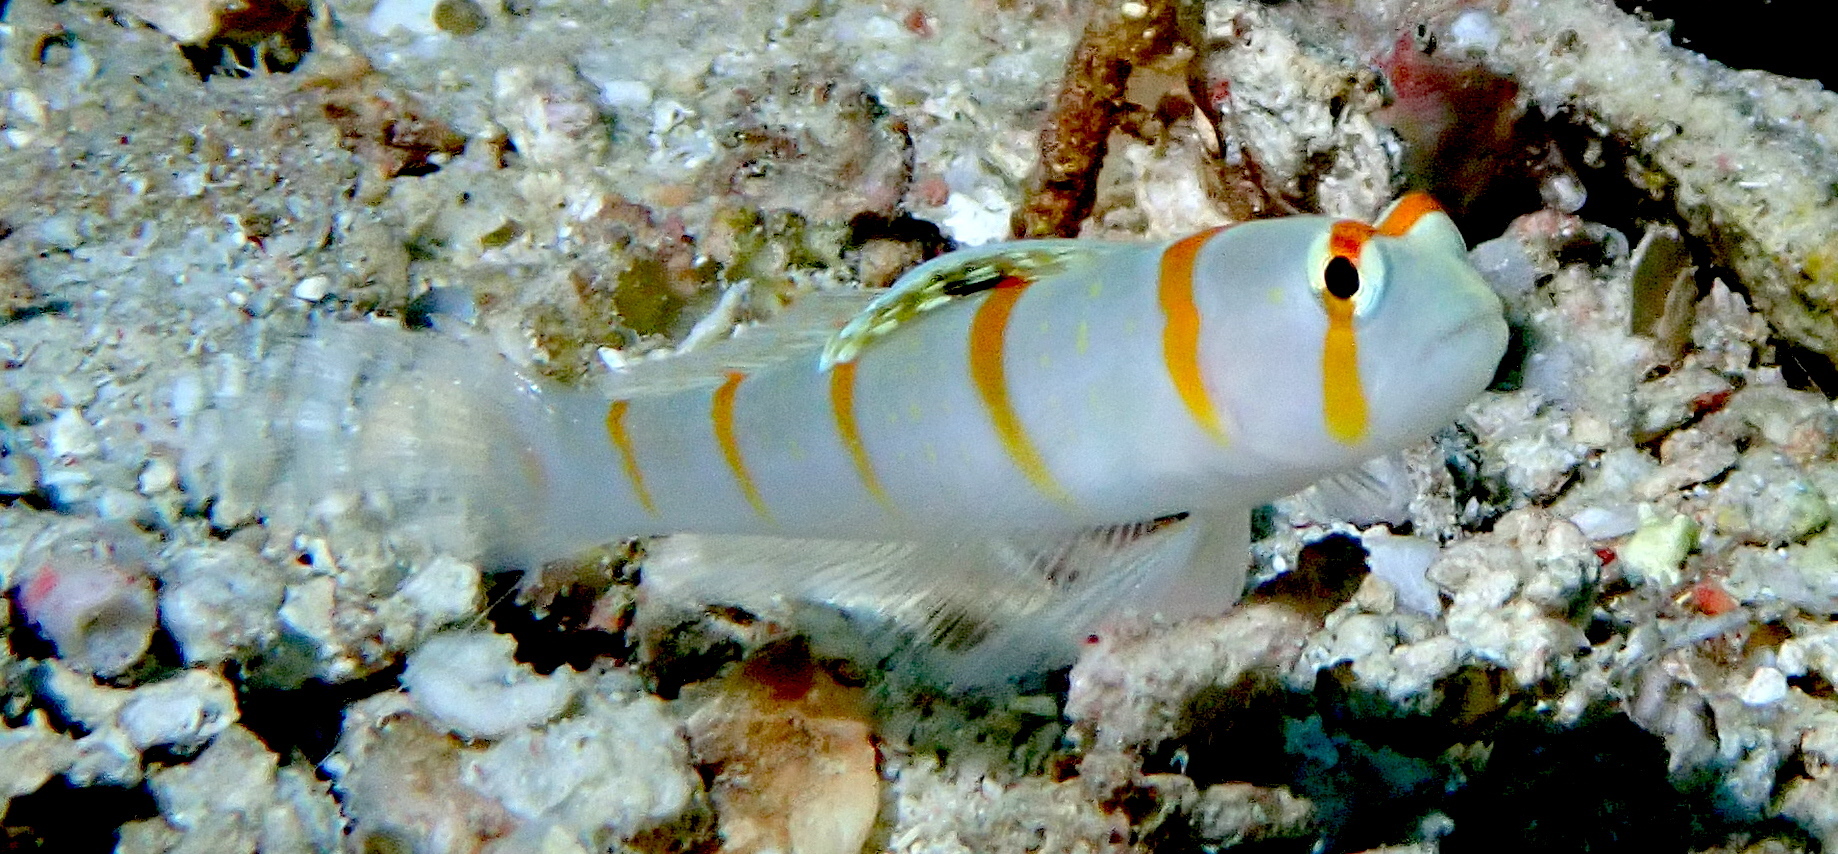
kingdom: Animalia
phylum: Chordata
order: Perciformes
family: Gobiidae
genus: Amblyeleotris
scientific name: Amblyeleotris randalli
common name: Gold-barred shrimp-goby
